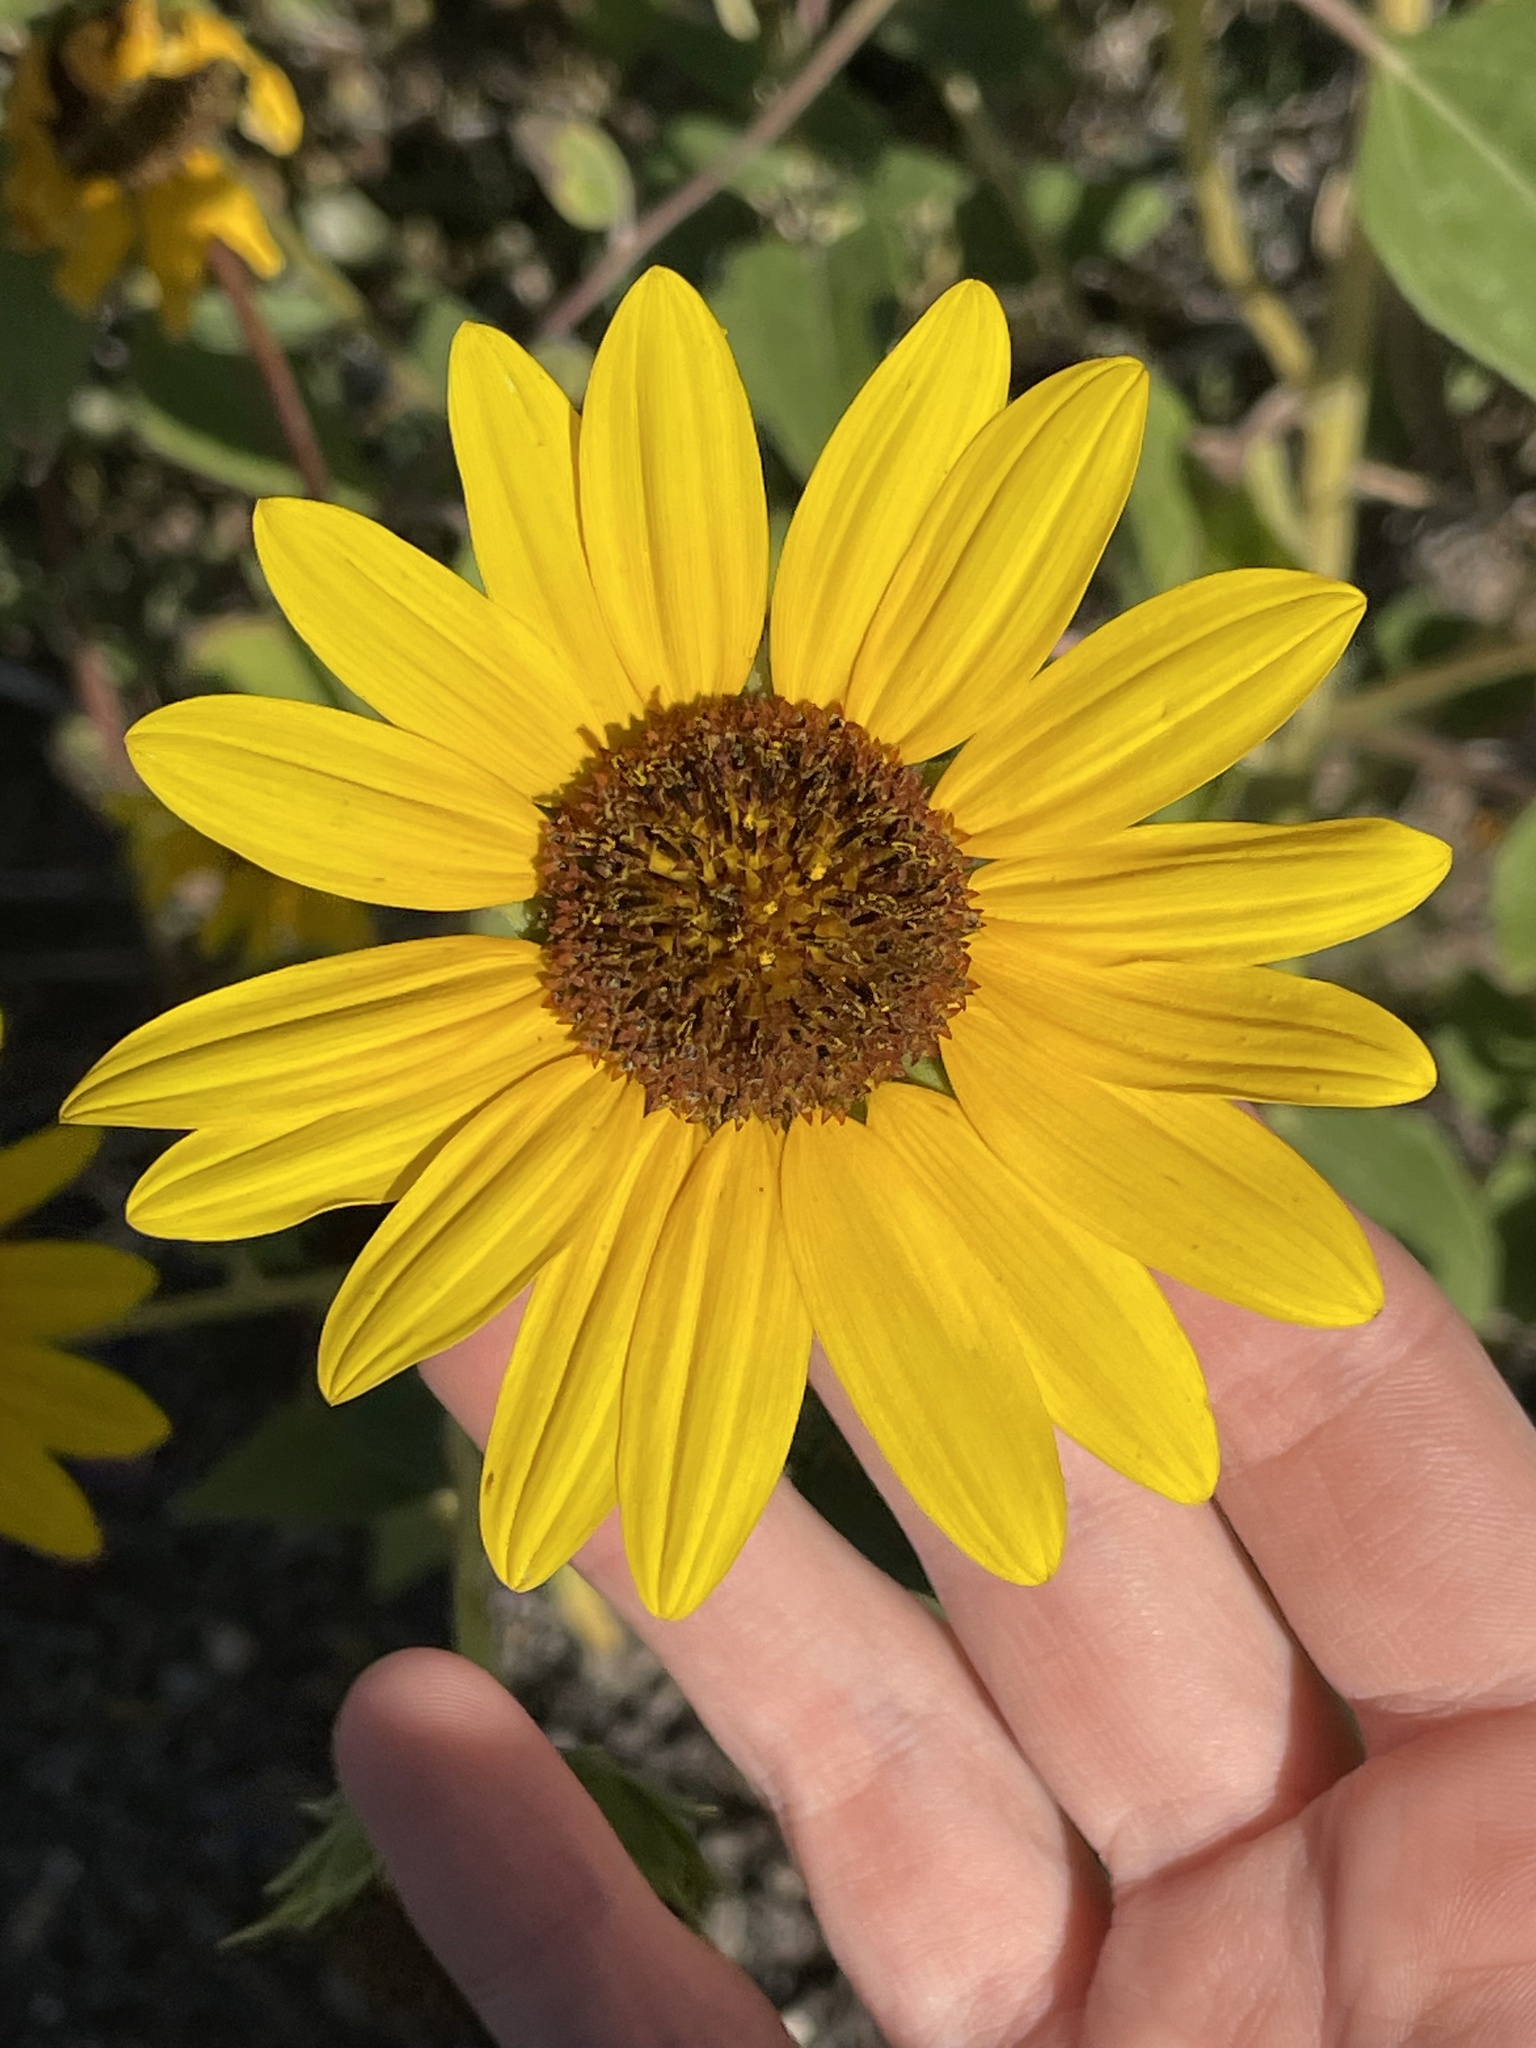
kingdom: Plantae
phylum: Tracheophyta
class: Magnoliopsida
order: Asterales
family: Asteraceae
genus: Helianthus
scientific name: Helianthus annuus
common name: Sunflower
